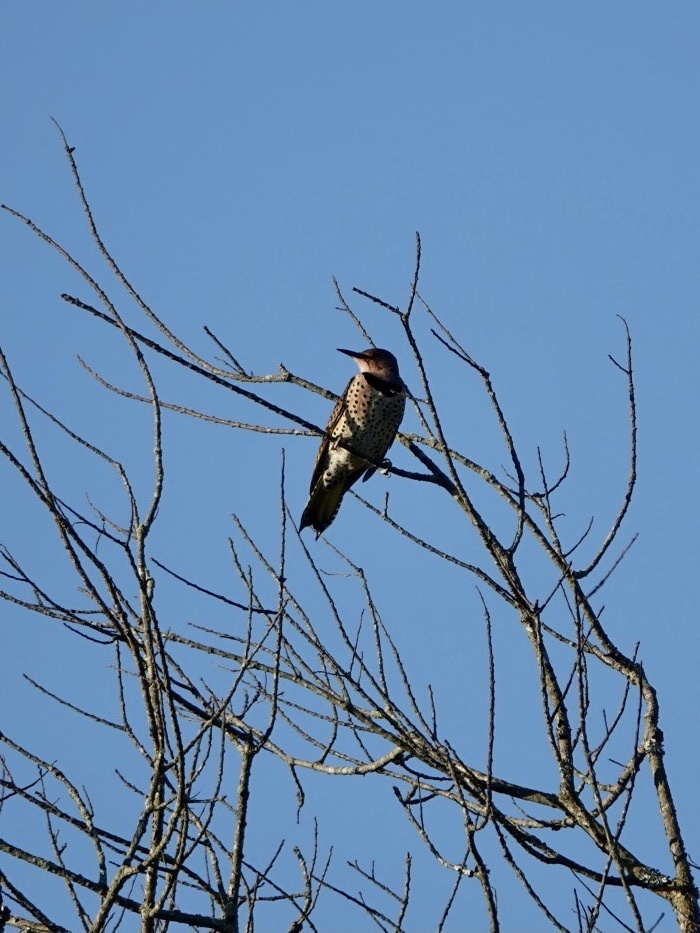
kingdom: Animalia
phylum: Chordata
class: Aves
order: Piciformes
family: Picidae
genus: Colaptes
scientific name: Colaptes auratus
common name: Northern flicker
